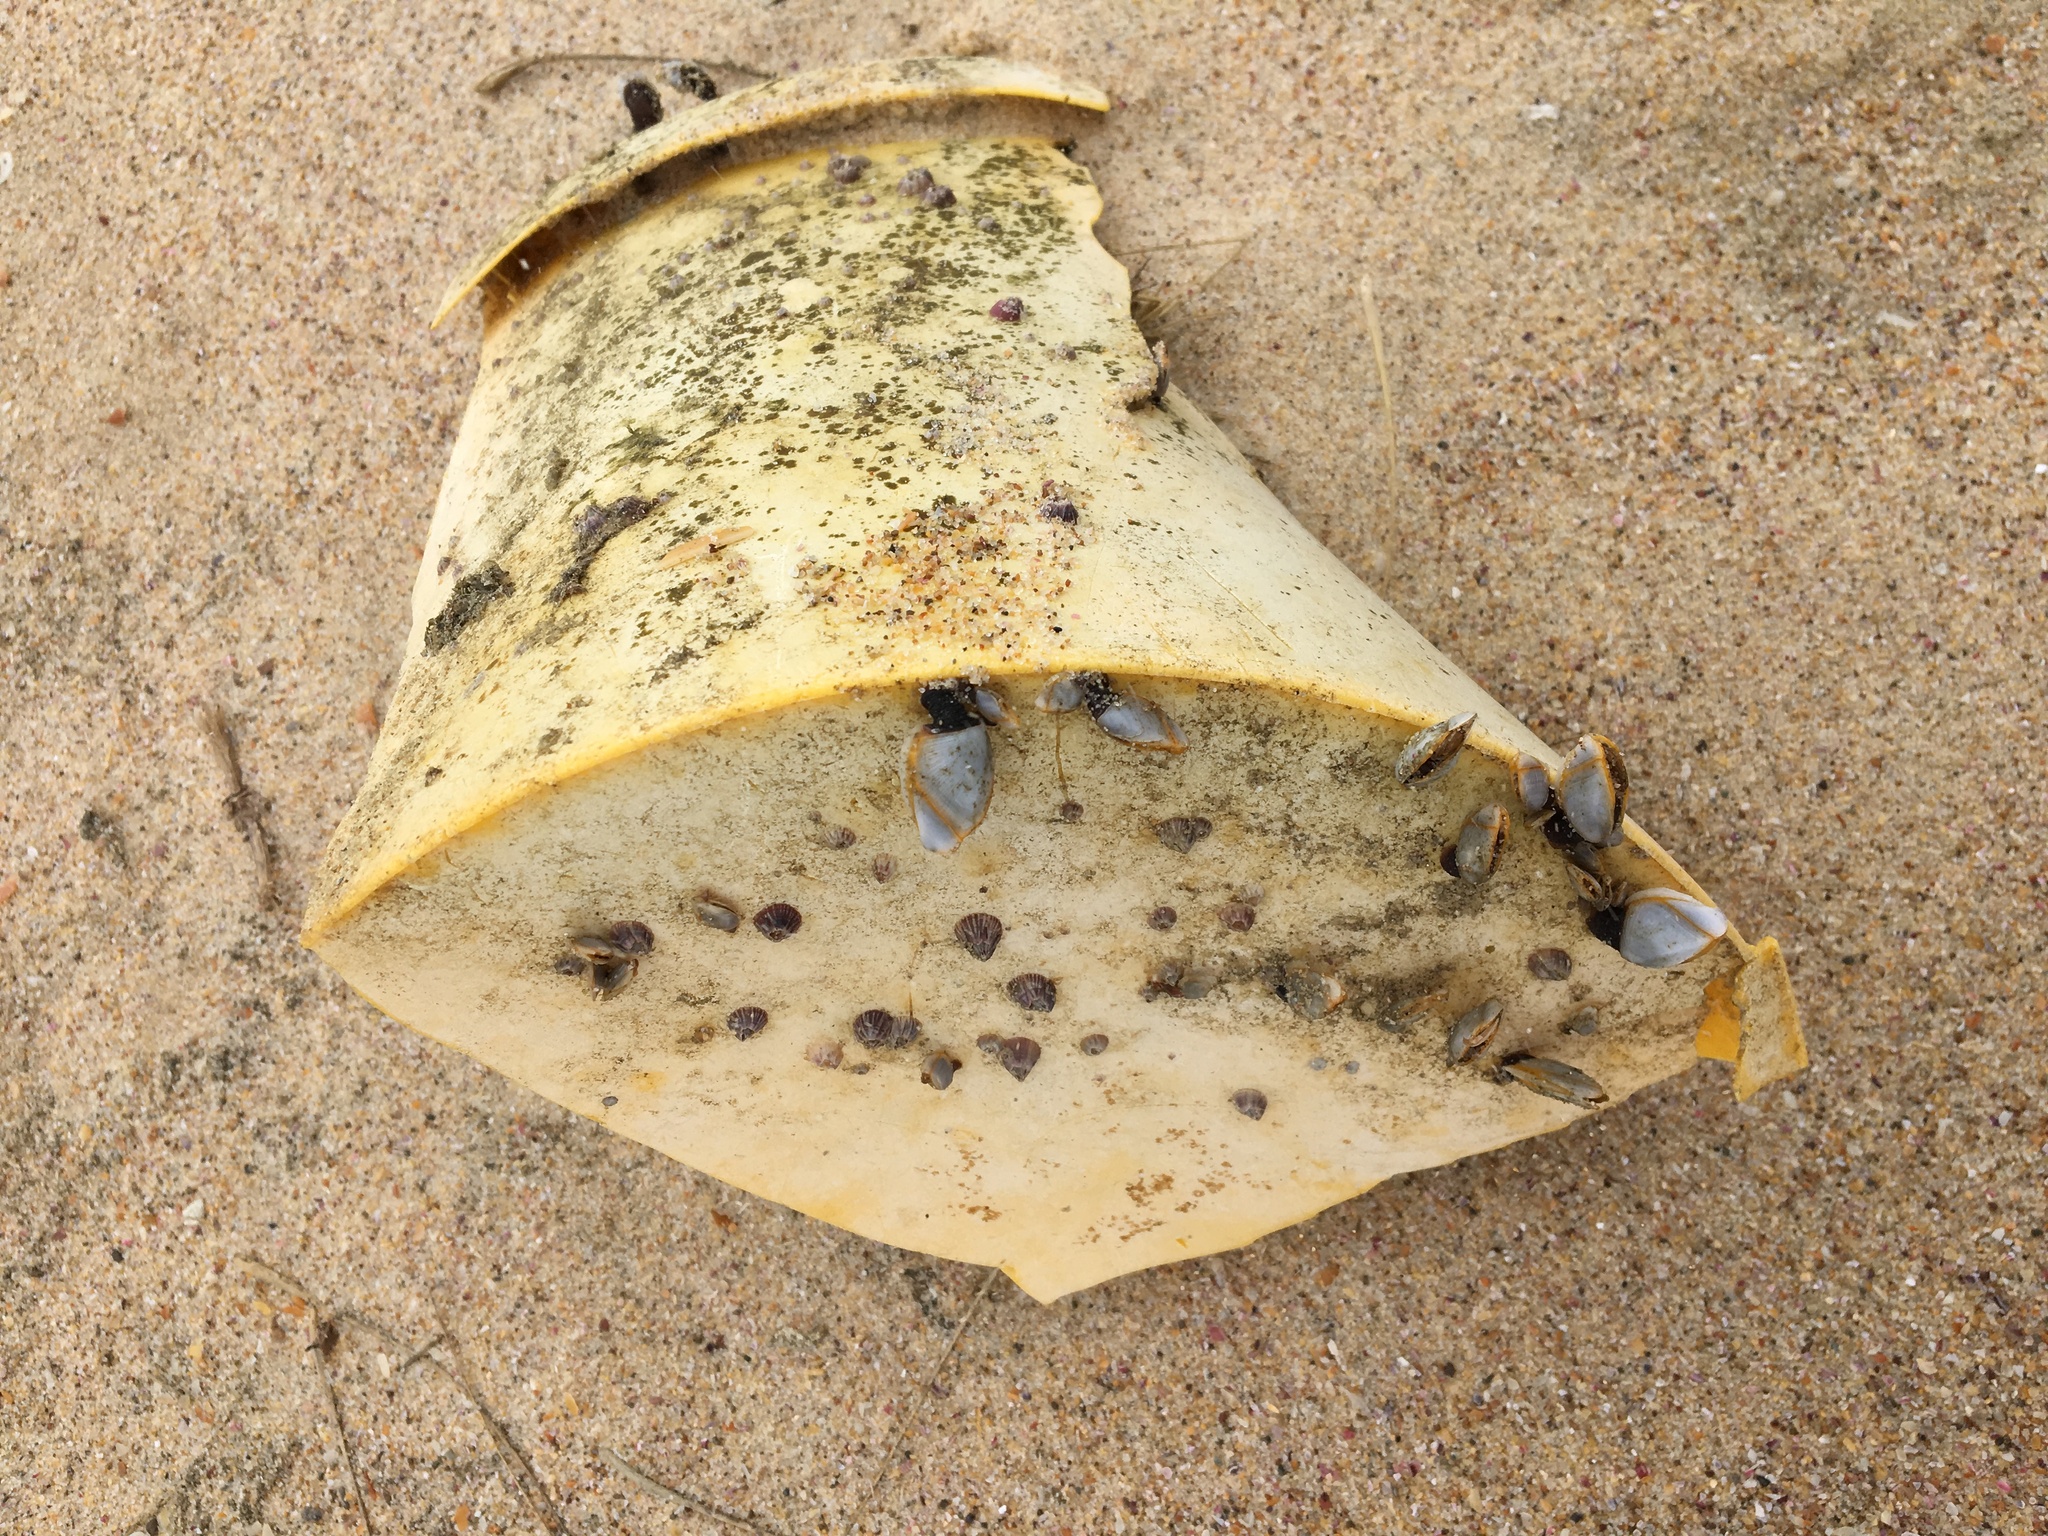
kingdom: Animalia
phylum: Arthropoda
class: Maxillopoda
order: Pedunculata
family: Lepadidae
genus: Lepas
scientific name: Lepas anserifera
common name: Goose barnacle
